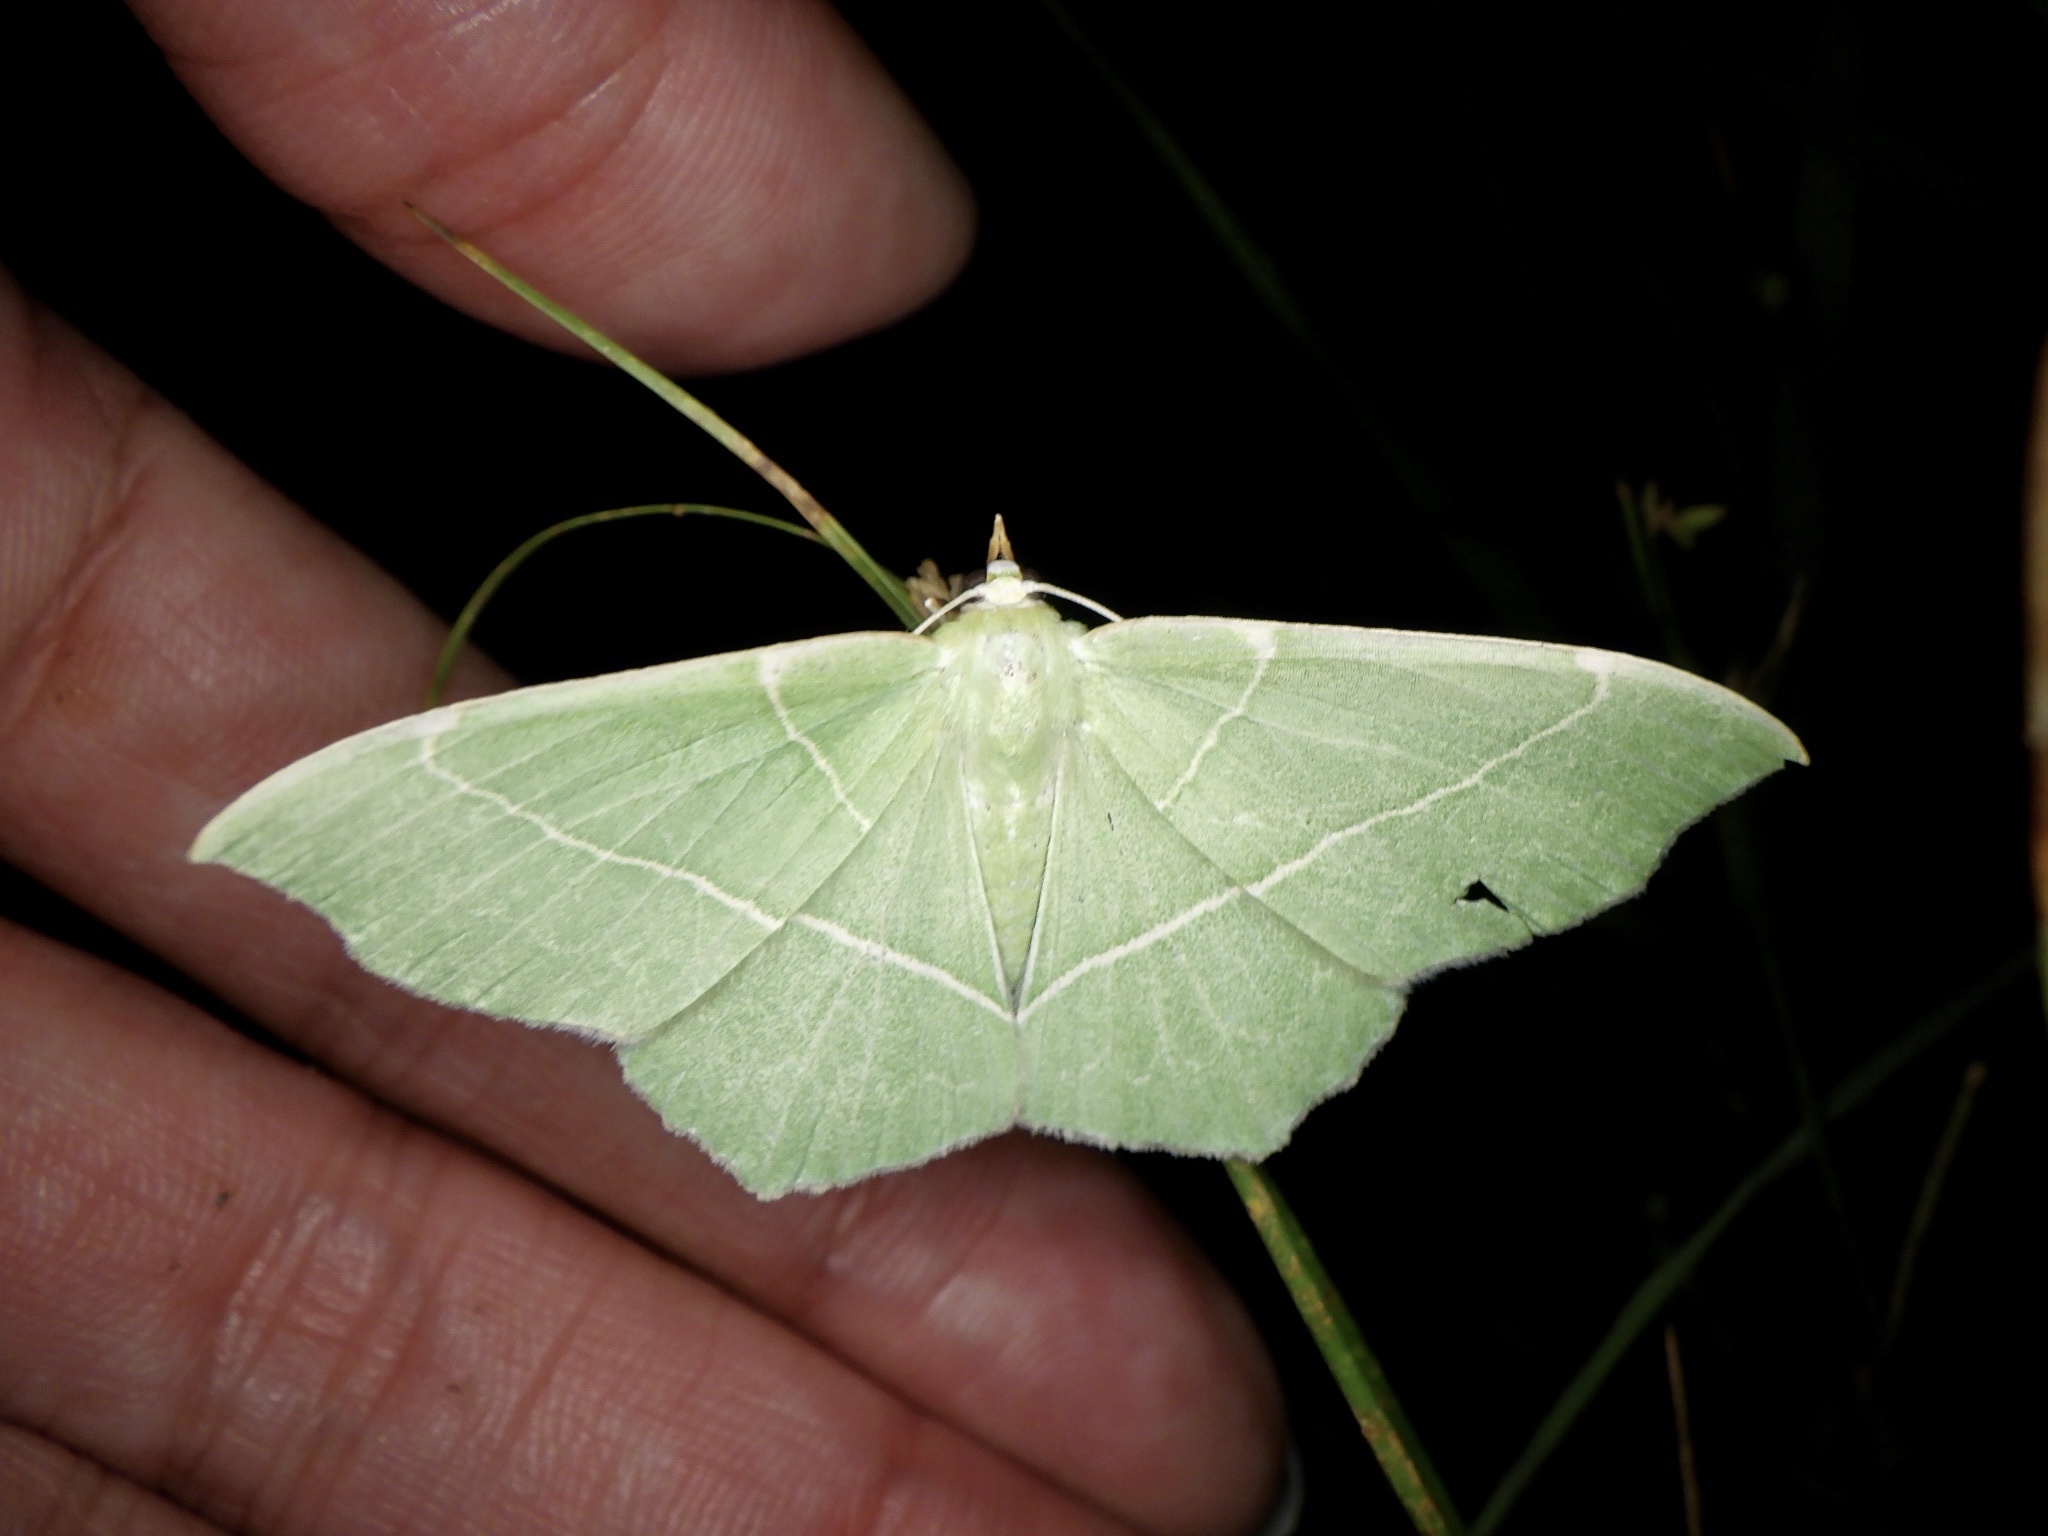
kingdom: Animalia
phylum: Arthropoda
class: Insecta
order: Lepidoptera
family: Geometridae
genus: Geometra
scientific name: Geometra dieckmanni
